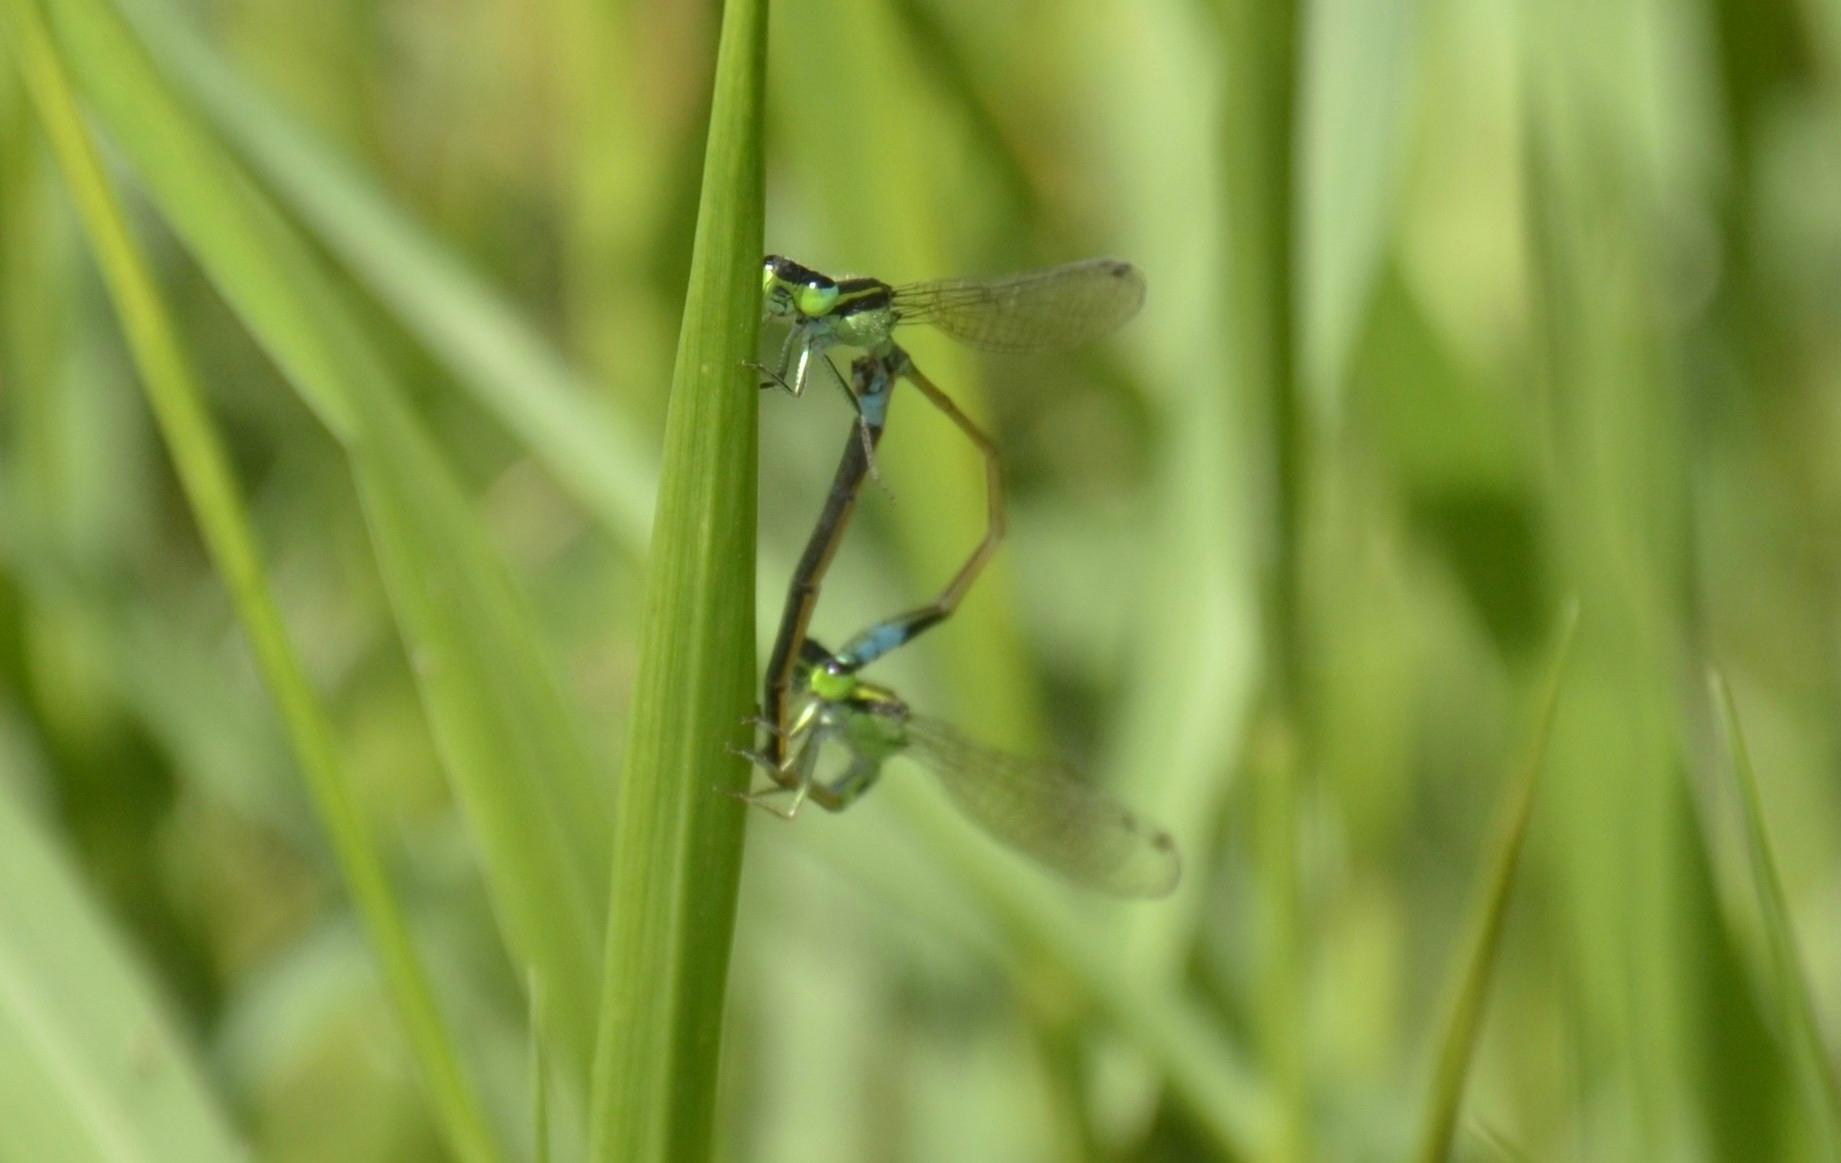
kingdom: Animalia
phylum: Arthropoda
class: Insecta
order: Odonata
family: Coenagrionidae
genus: Ischnura
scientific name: Ischnura senegalensis
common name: Tropical bluetail
